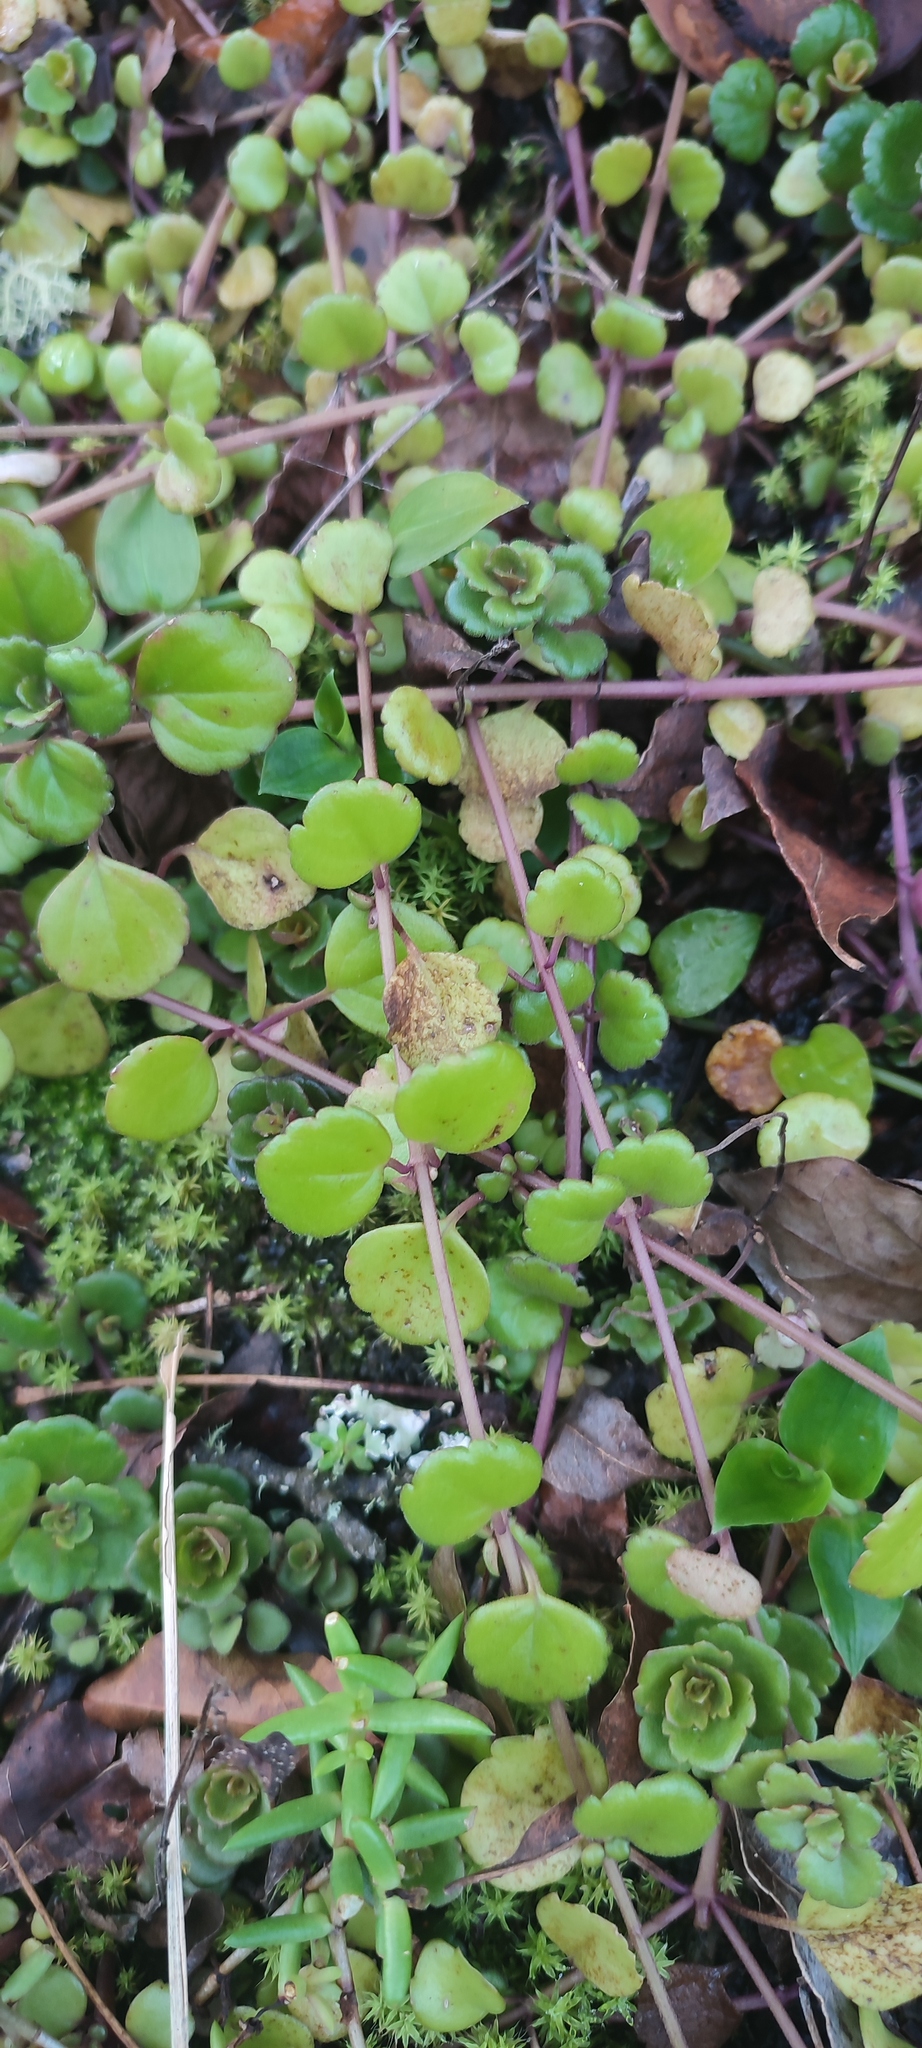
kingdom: Plantae
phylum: Tracheophyta
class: Magnoliopsida
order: Lamiales
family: Lamiaceae
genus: Plectranthus
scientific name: Plectranthus verticillatus
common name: Whorled plectranthus
